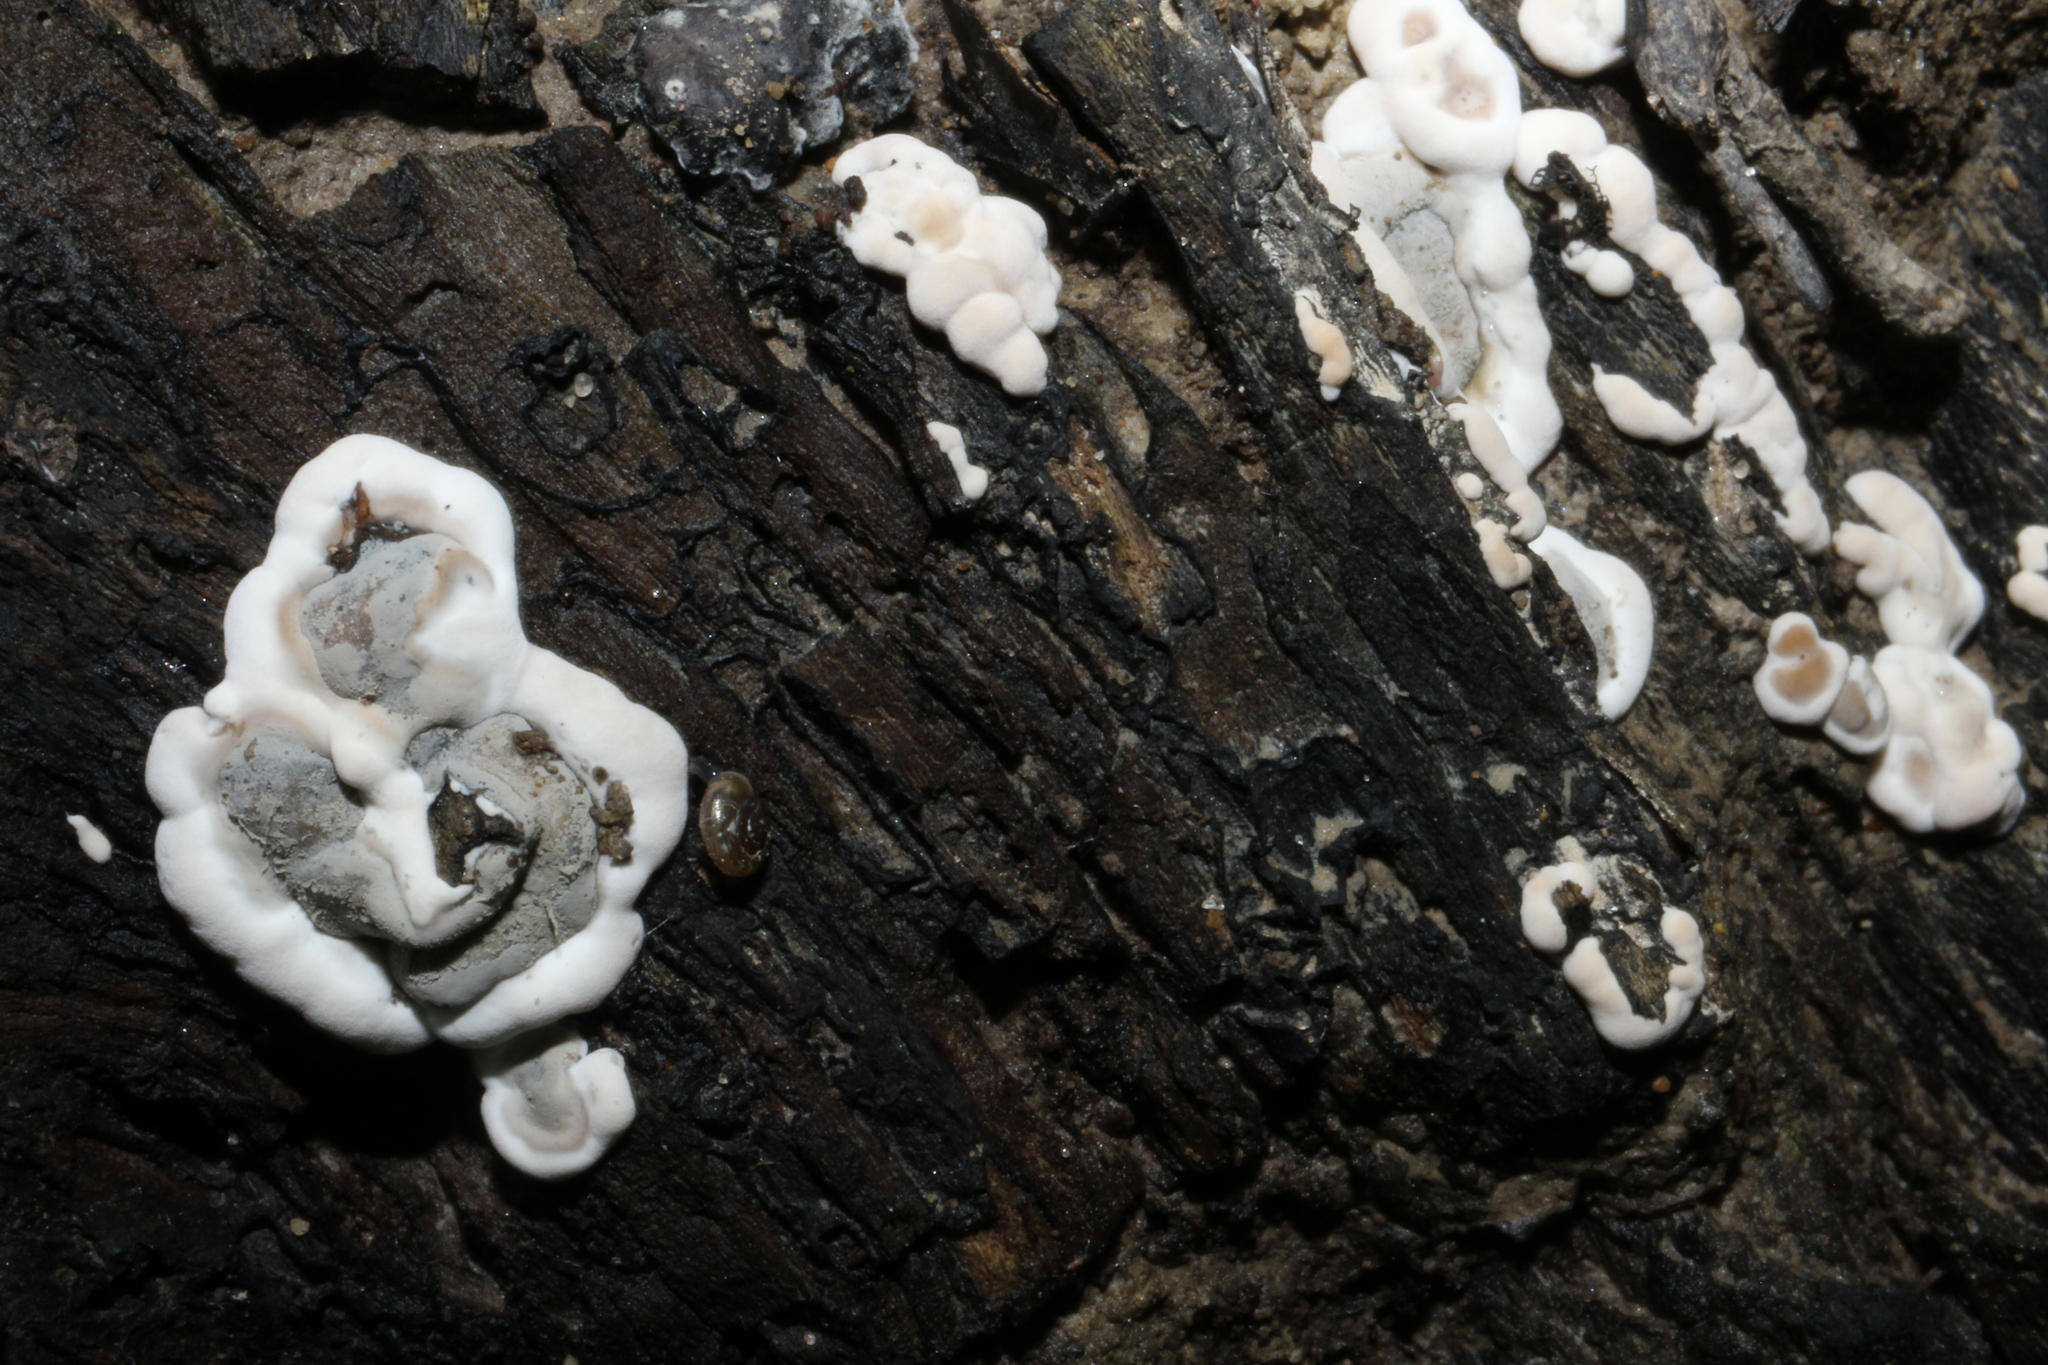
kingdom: Fungi
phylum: Ascomycota
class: Sordariomycetes
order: Xylariales
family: Xylariaceae
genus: Kretzschmaria
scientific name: Kretzschmaria deusta
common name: Brittle cinder
